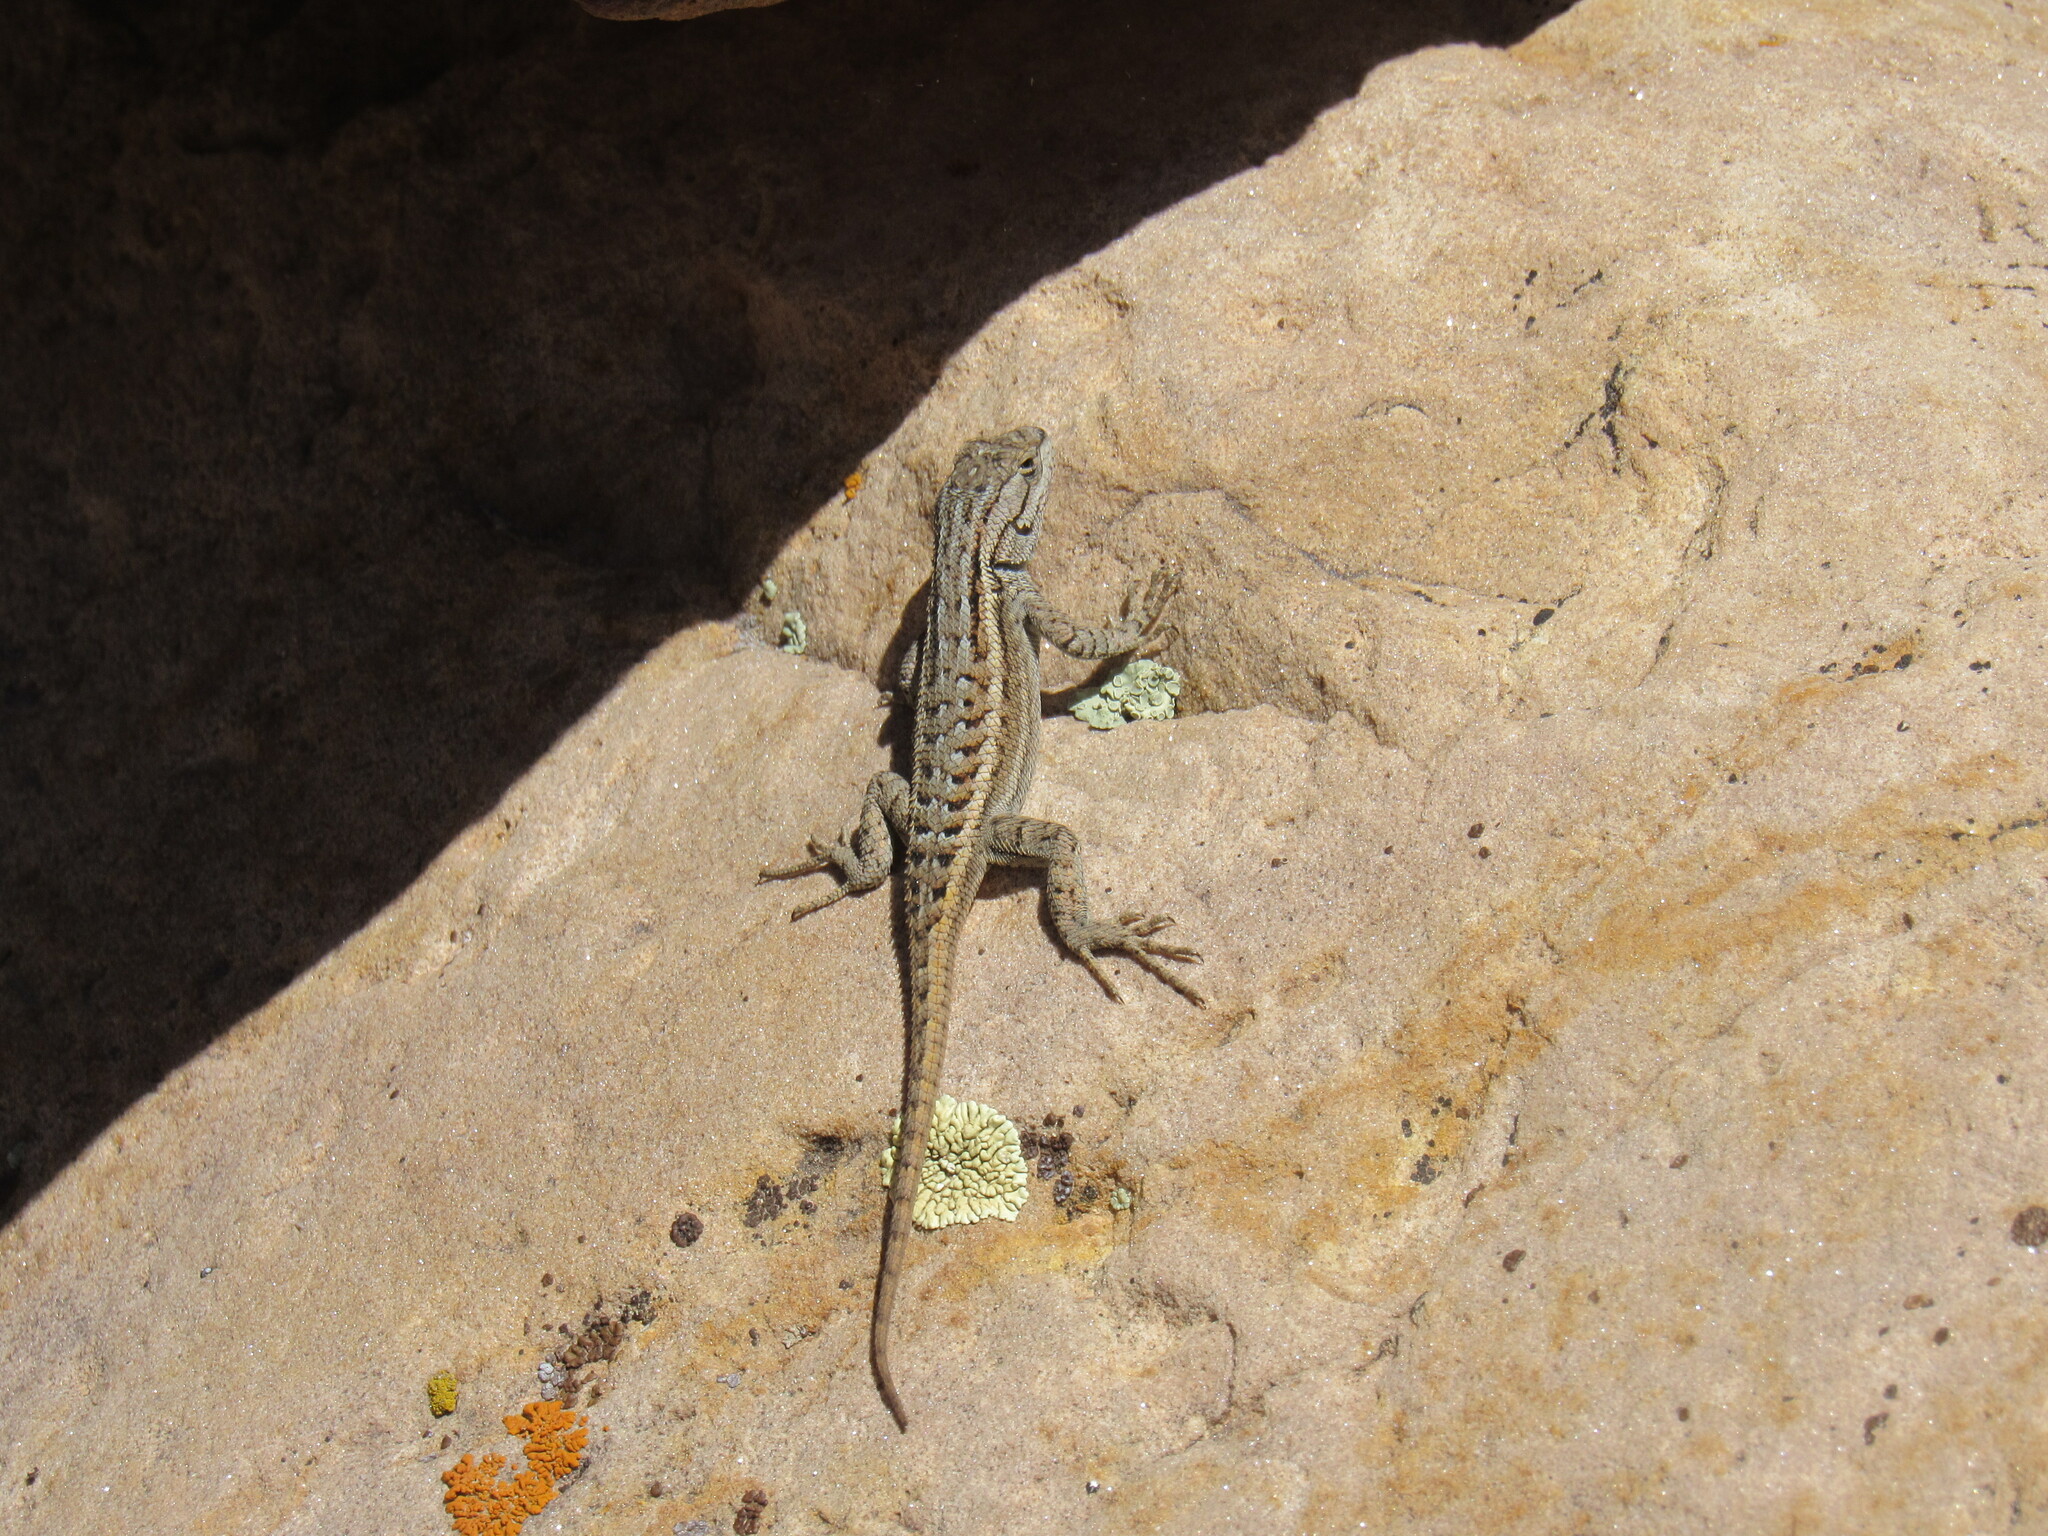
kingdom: Animalia
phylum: Chordata
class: Squamata
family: Phrynosomatidae
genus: Sceloporus
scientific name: Sceloporus
